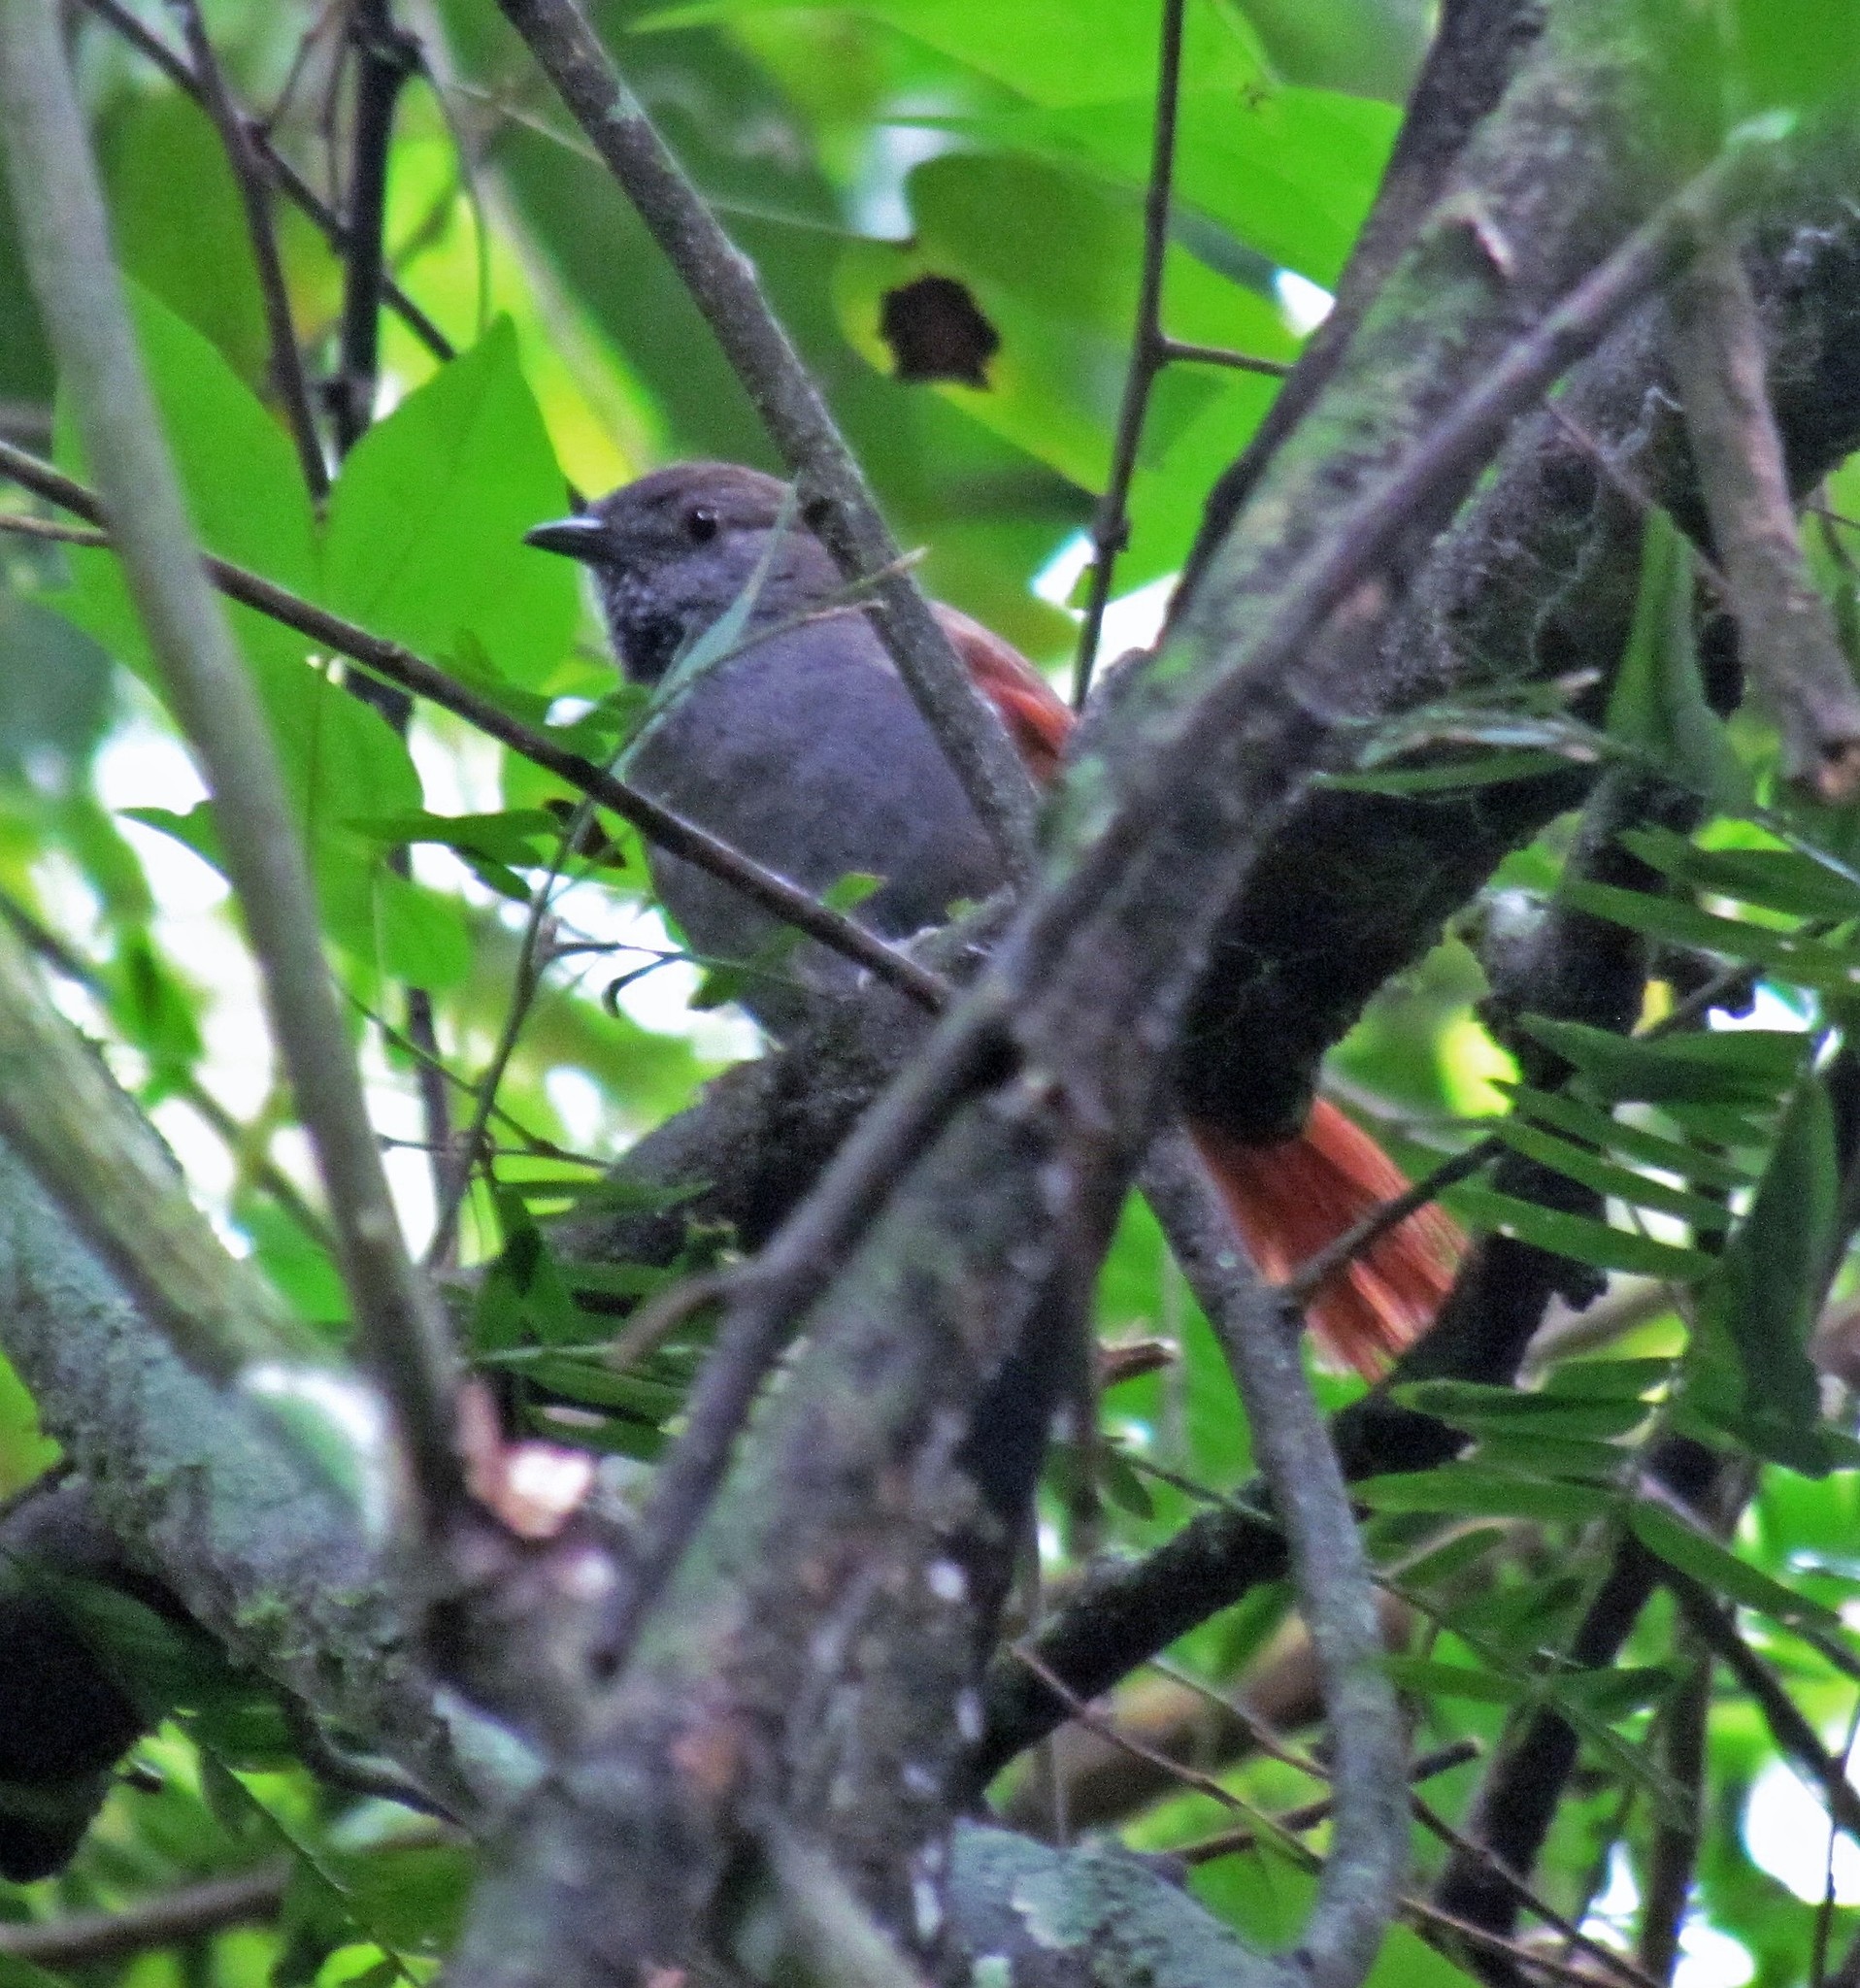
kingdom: Animalia
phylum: Chordata
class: Aves
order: Passeriformes
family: Furnariidae
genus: Synallaxis
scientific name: Synallaxis cinerascens
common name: Grey-bellied spinetail
